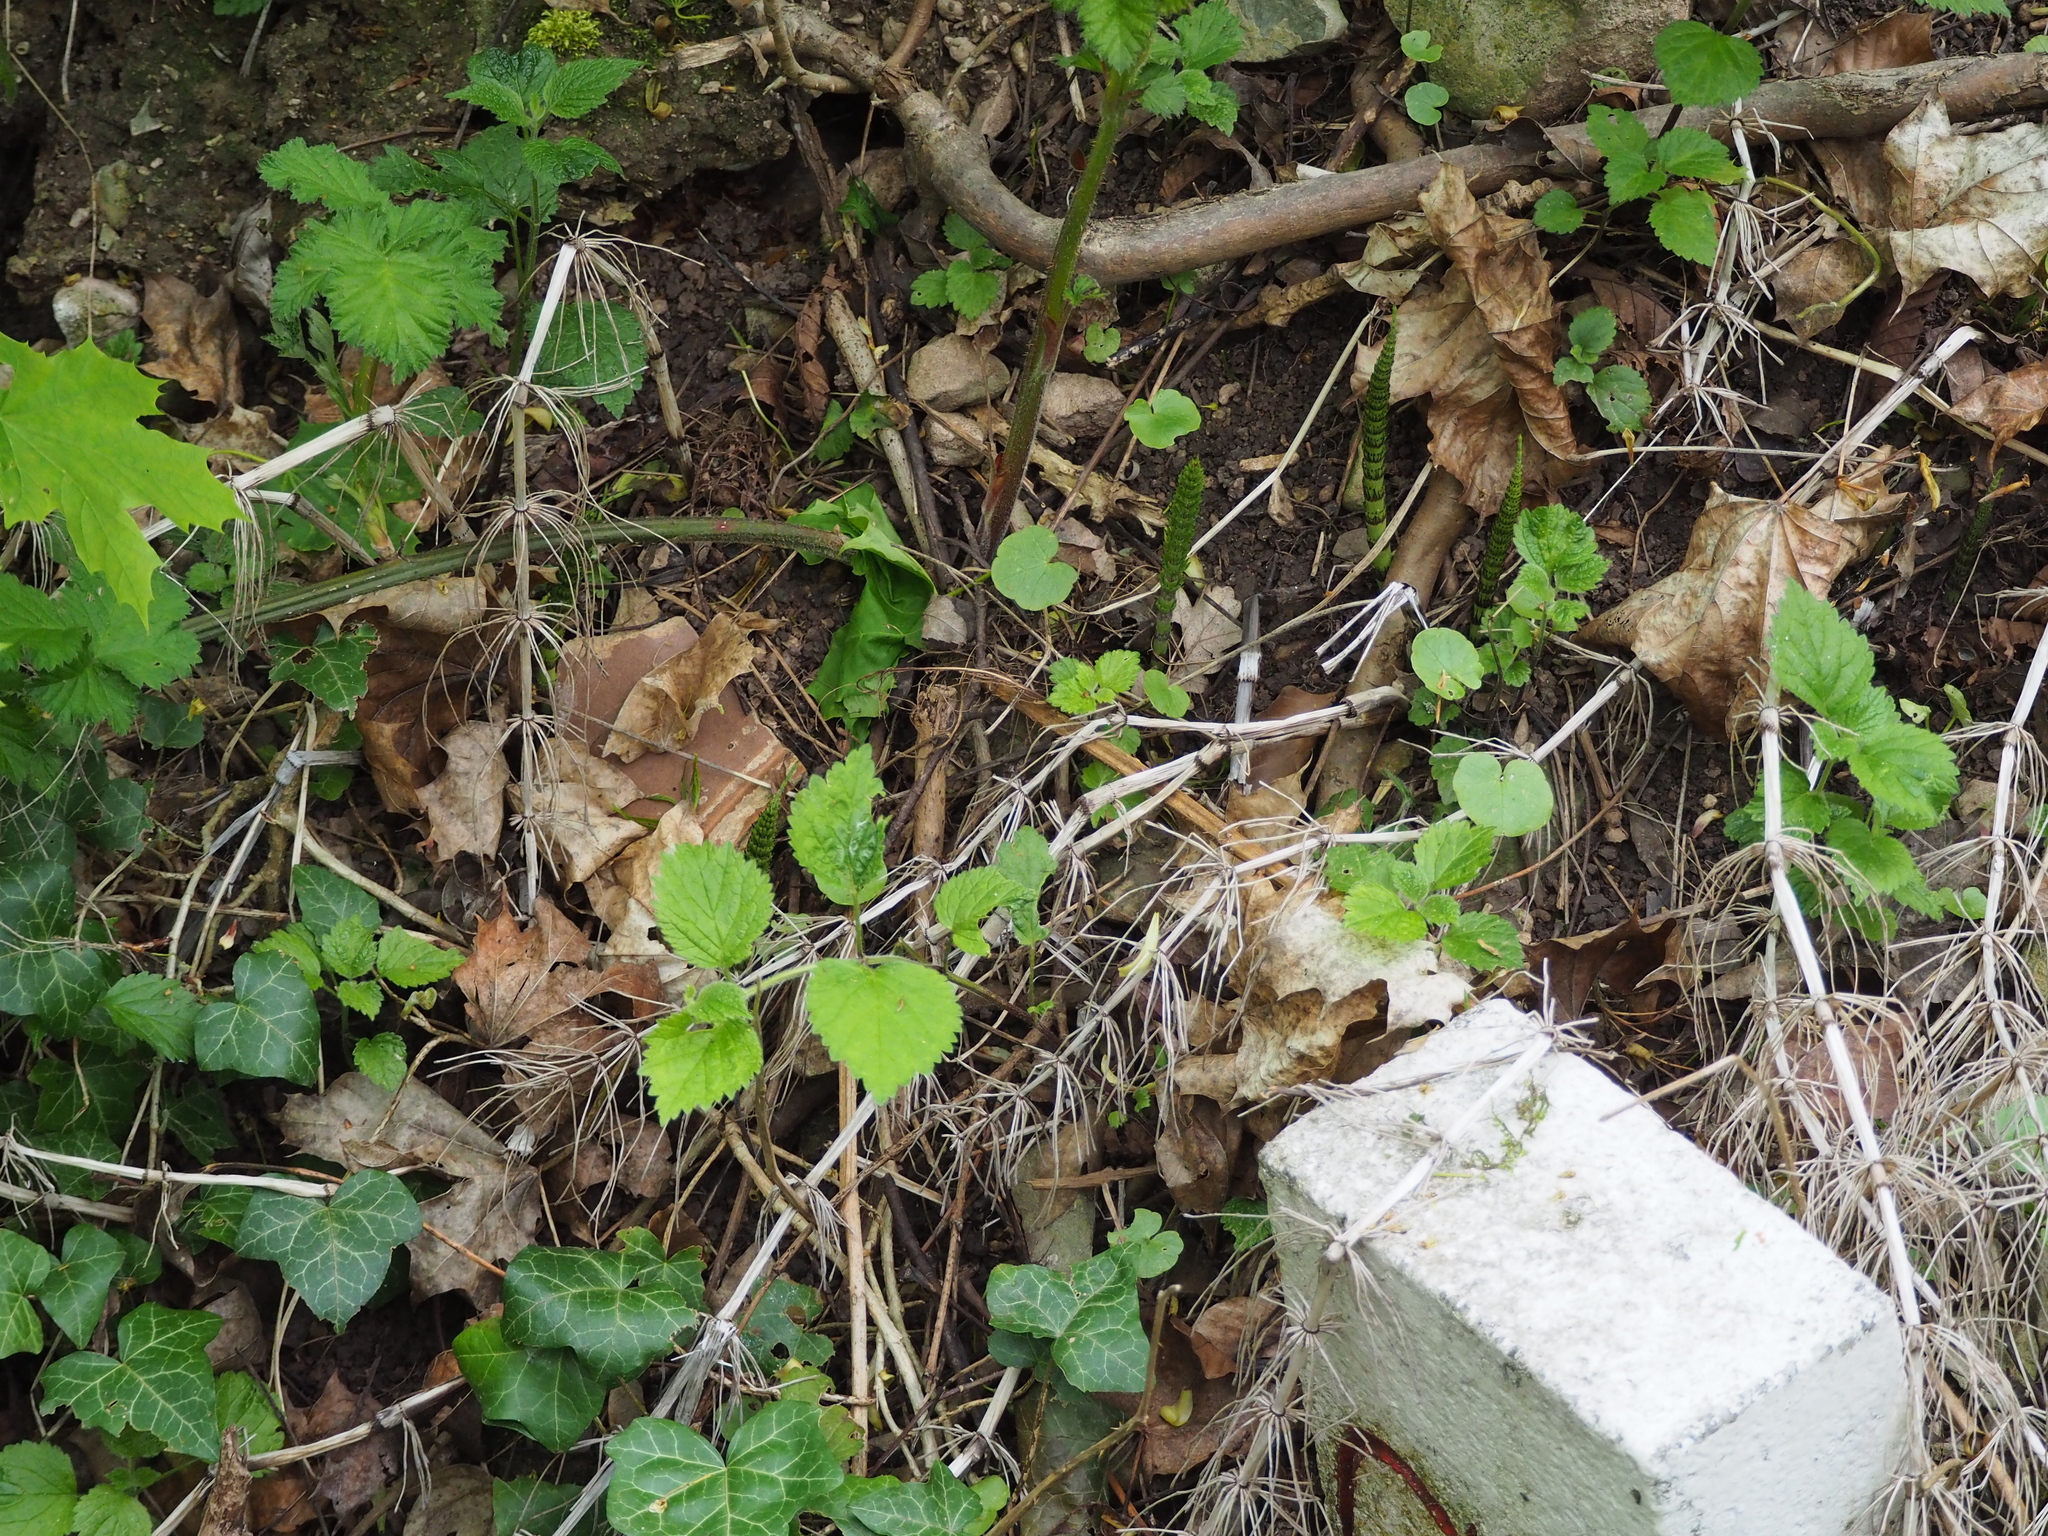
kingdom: Plantae
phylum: Tracheophyta
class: Polypodiopsida
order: Equisetales
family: Equisetaceae
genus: Equisetum
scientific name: Equisetum telmateia
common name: Great horsetail
